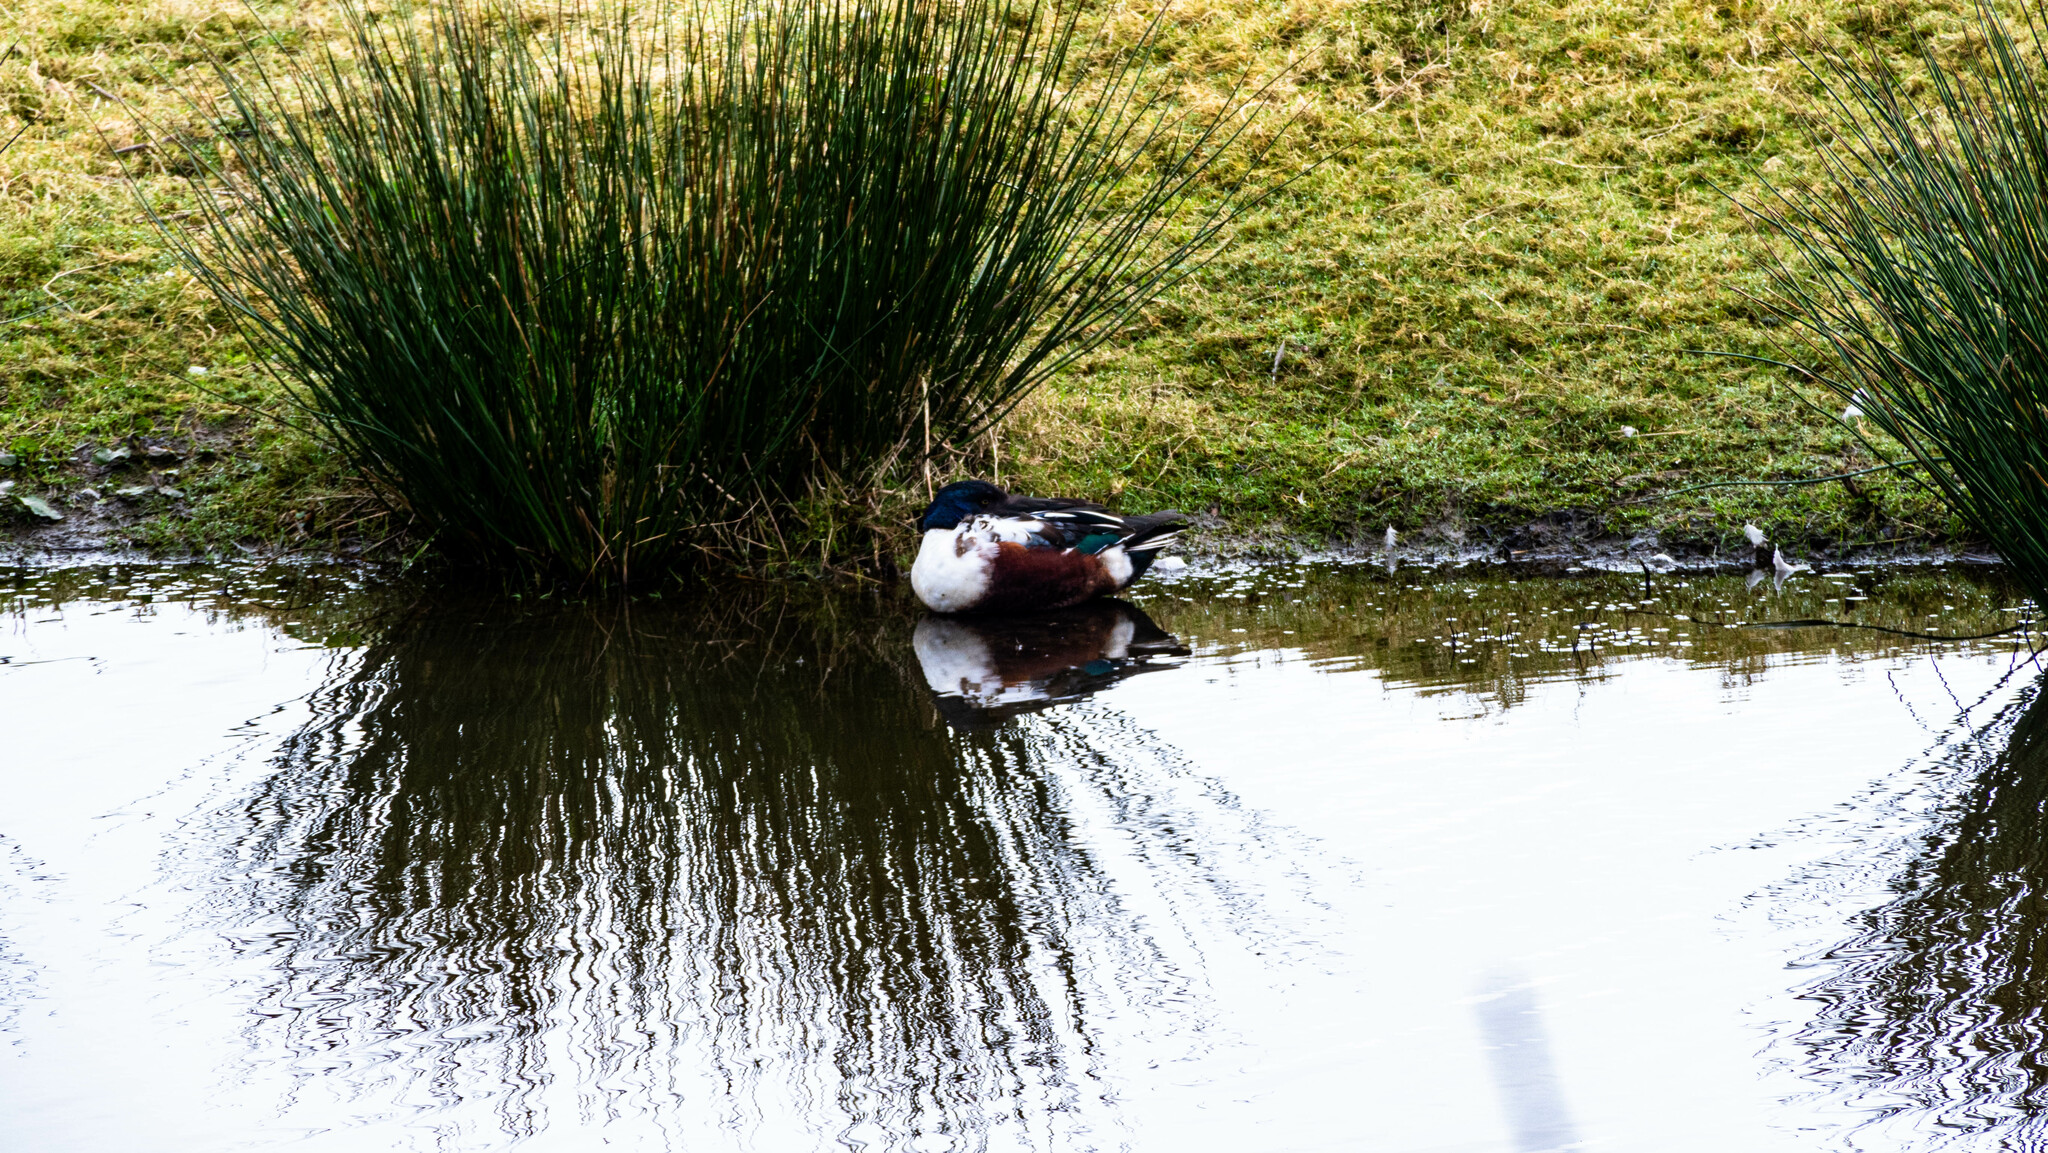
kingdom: Animalia
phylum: Chordata
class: Aves
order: Anseriformes
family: Anatidae
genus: Spatula
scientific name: Spatula clypeata
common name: Northern shoveler
